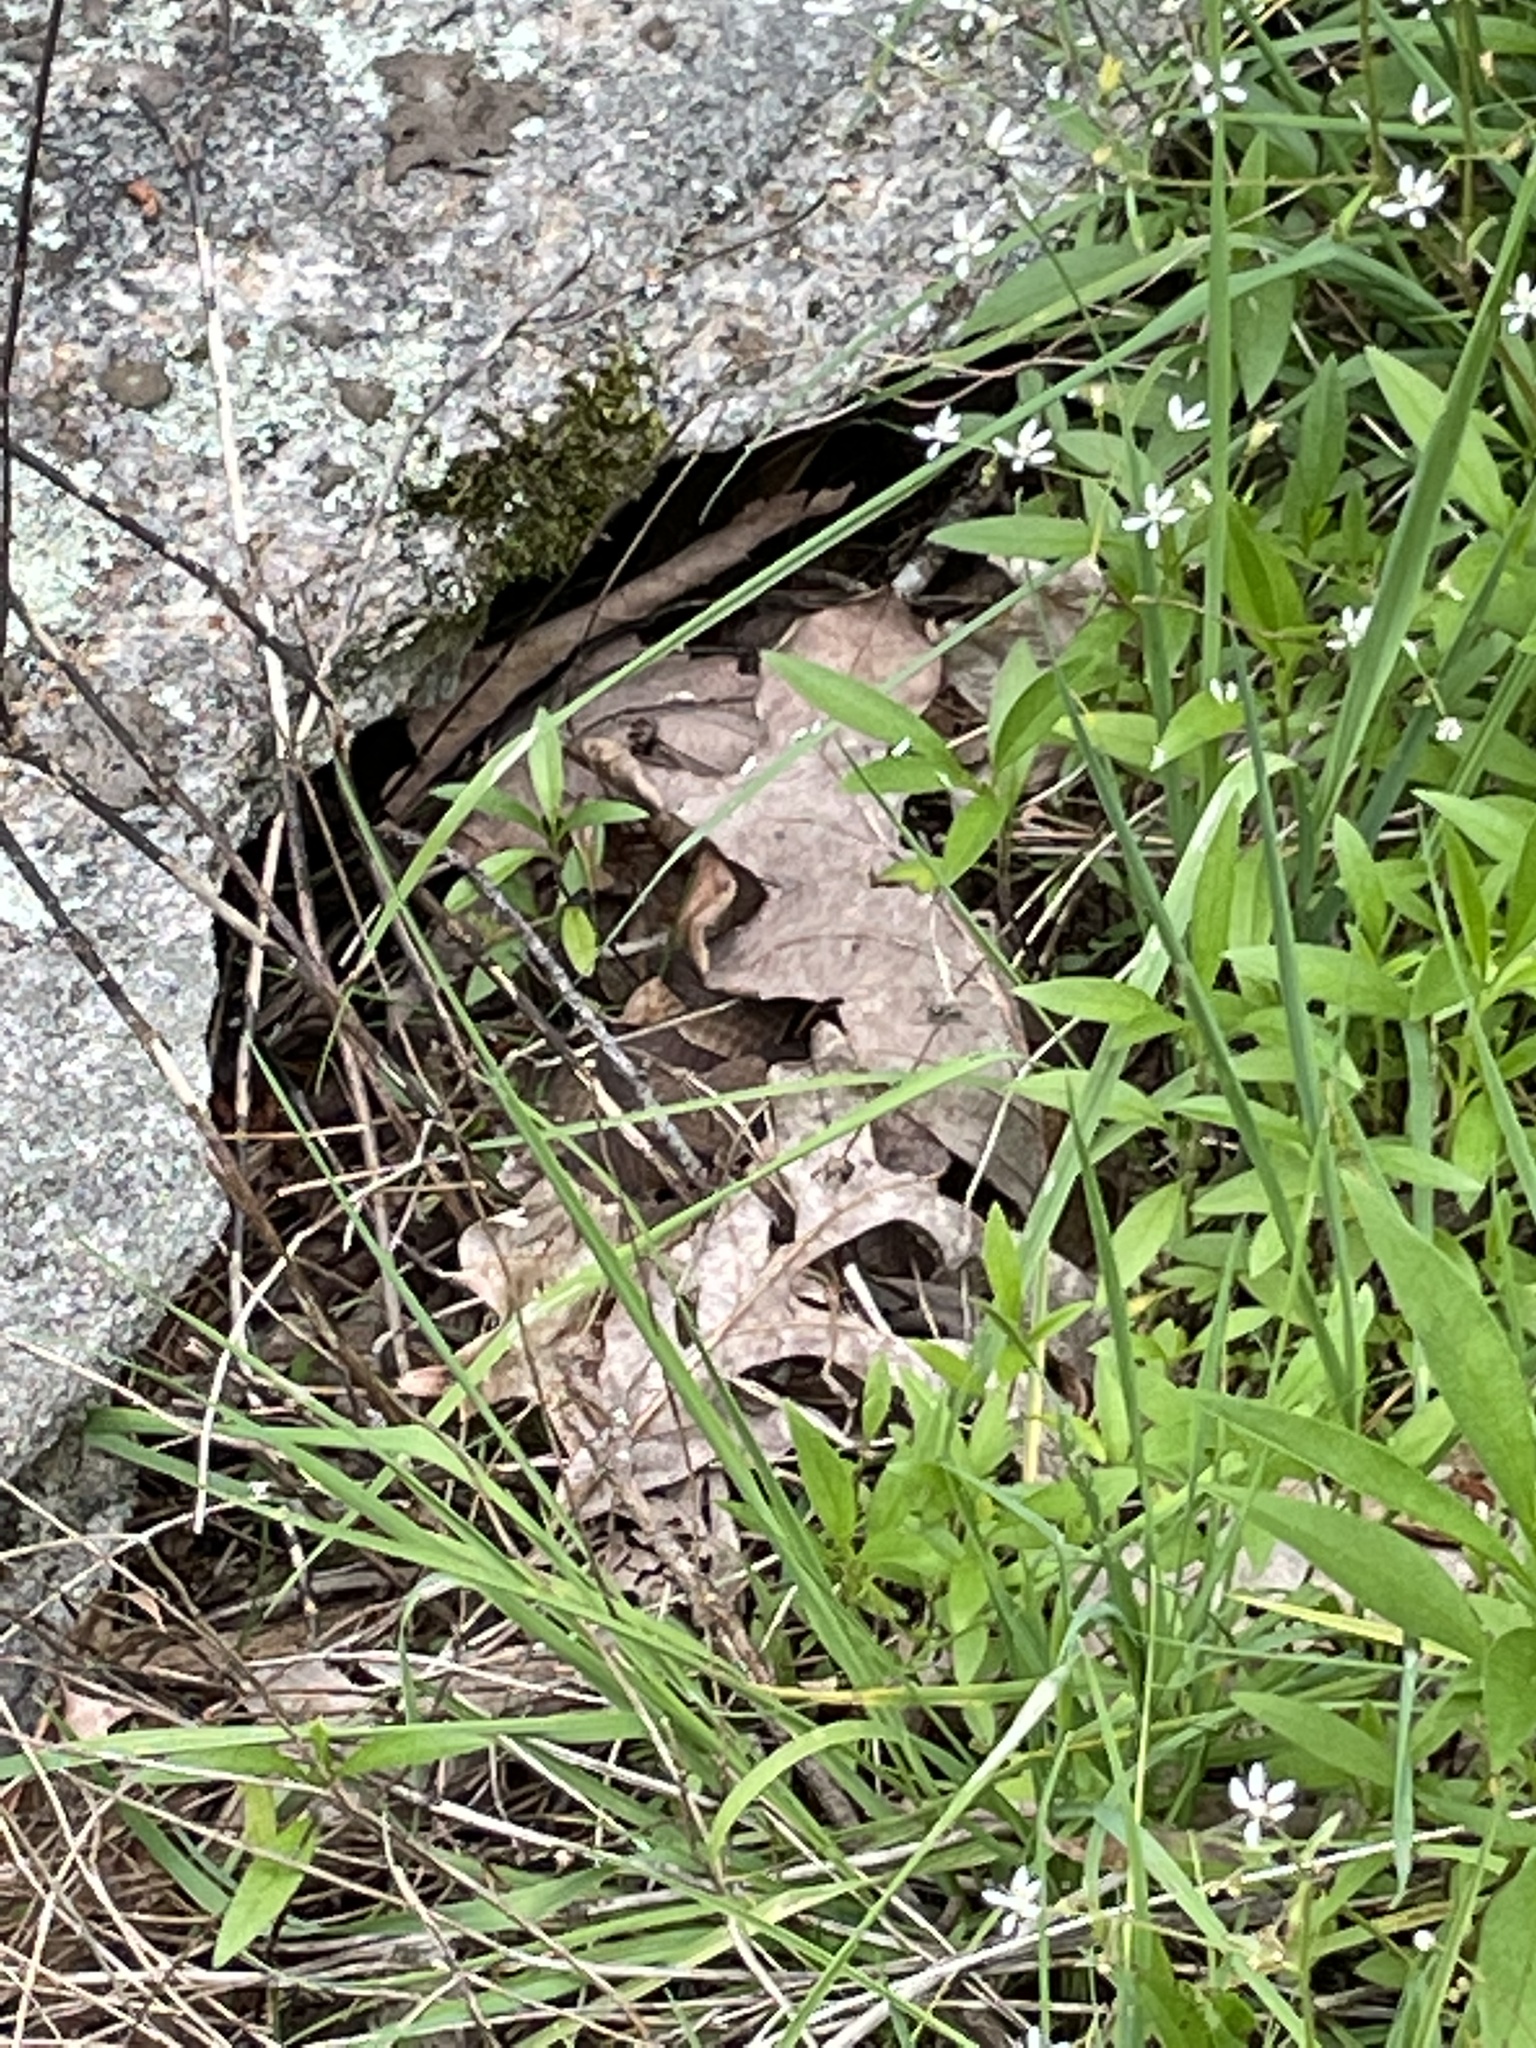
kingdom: Animalia
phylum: Chordata
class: Squamata
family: Viperidae
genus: Agkistrodon
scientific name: Agkistrodon contortrix
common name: Northern copperhead
